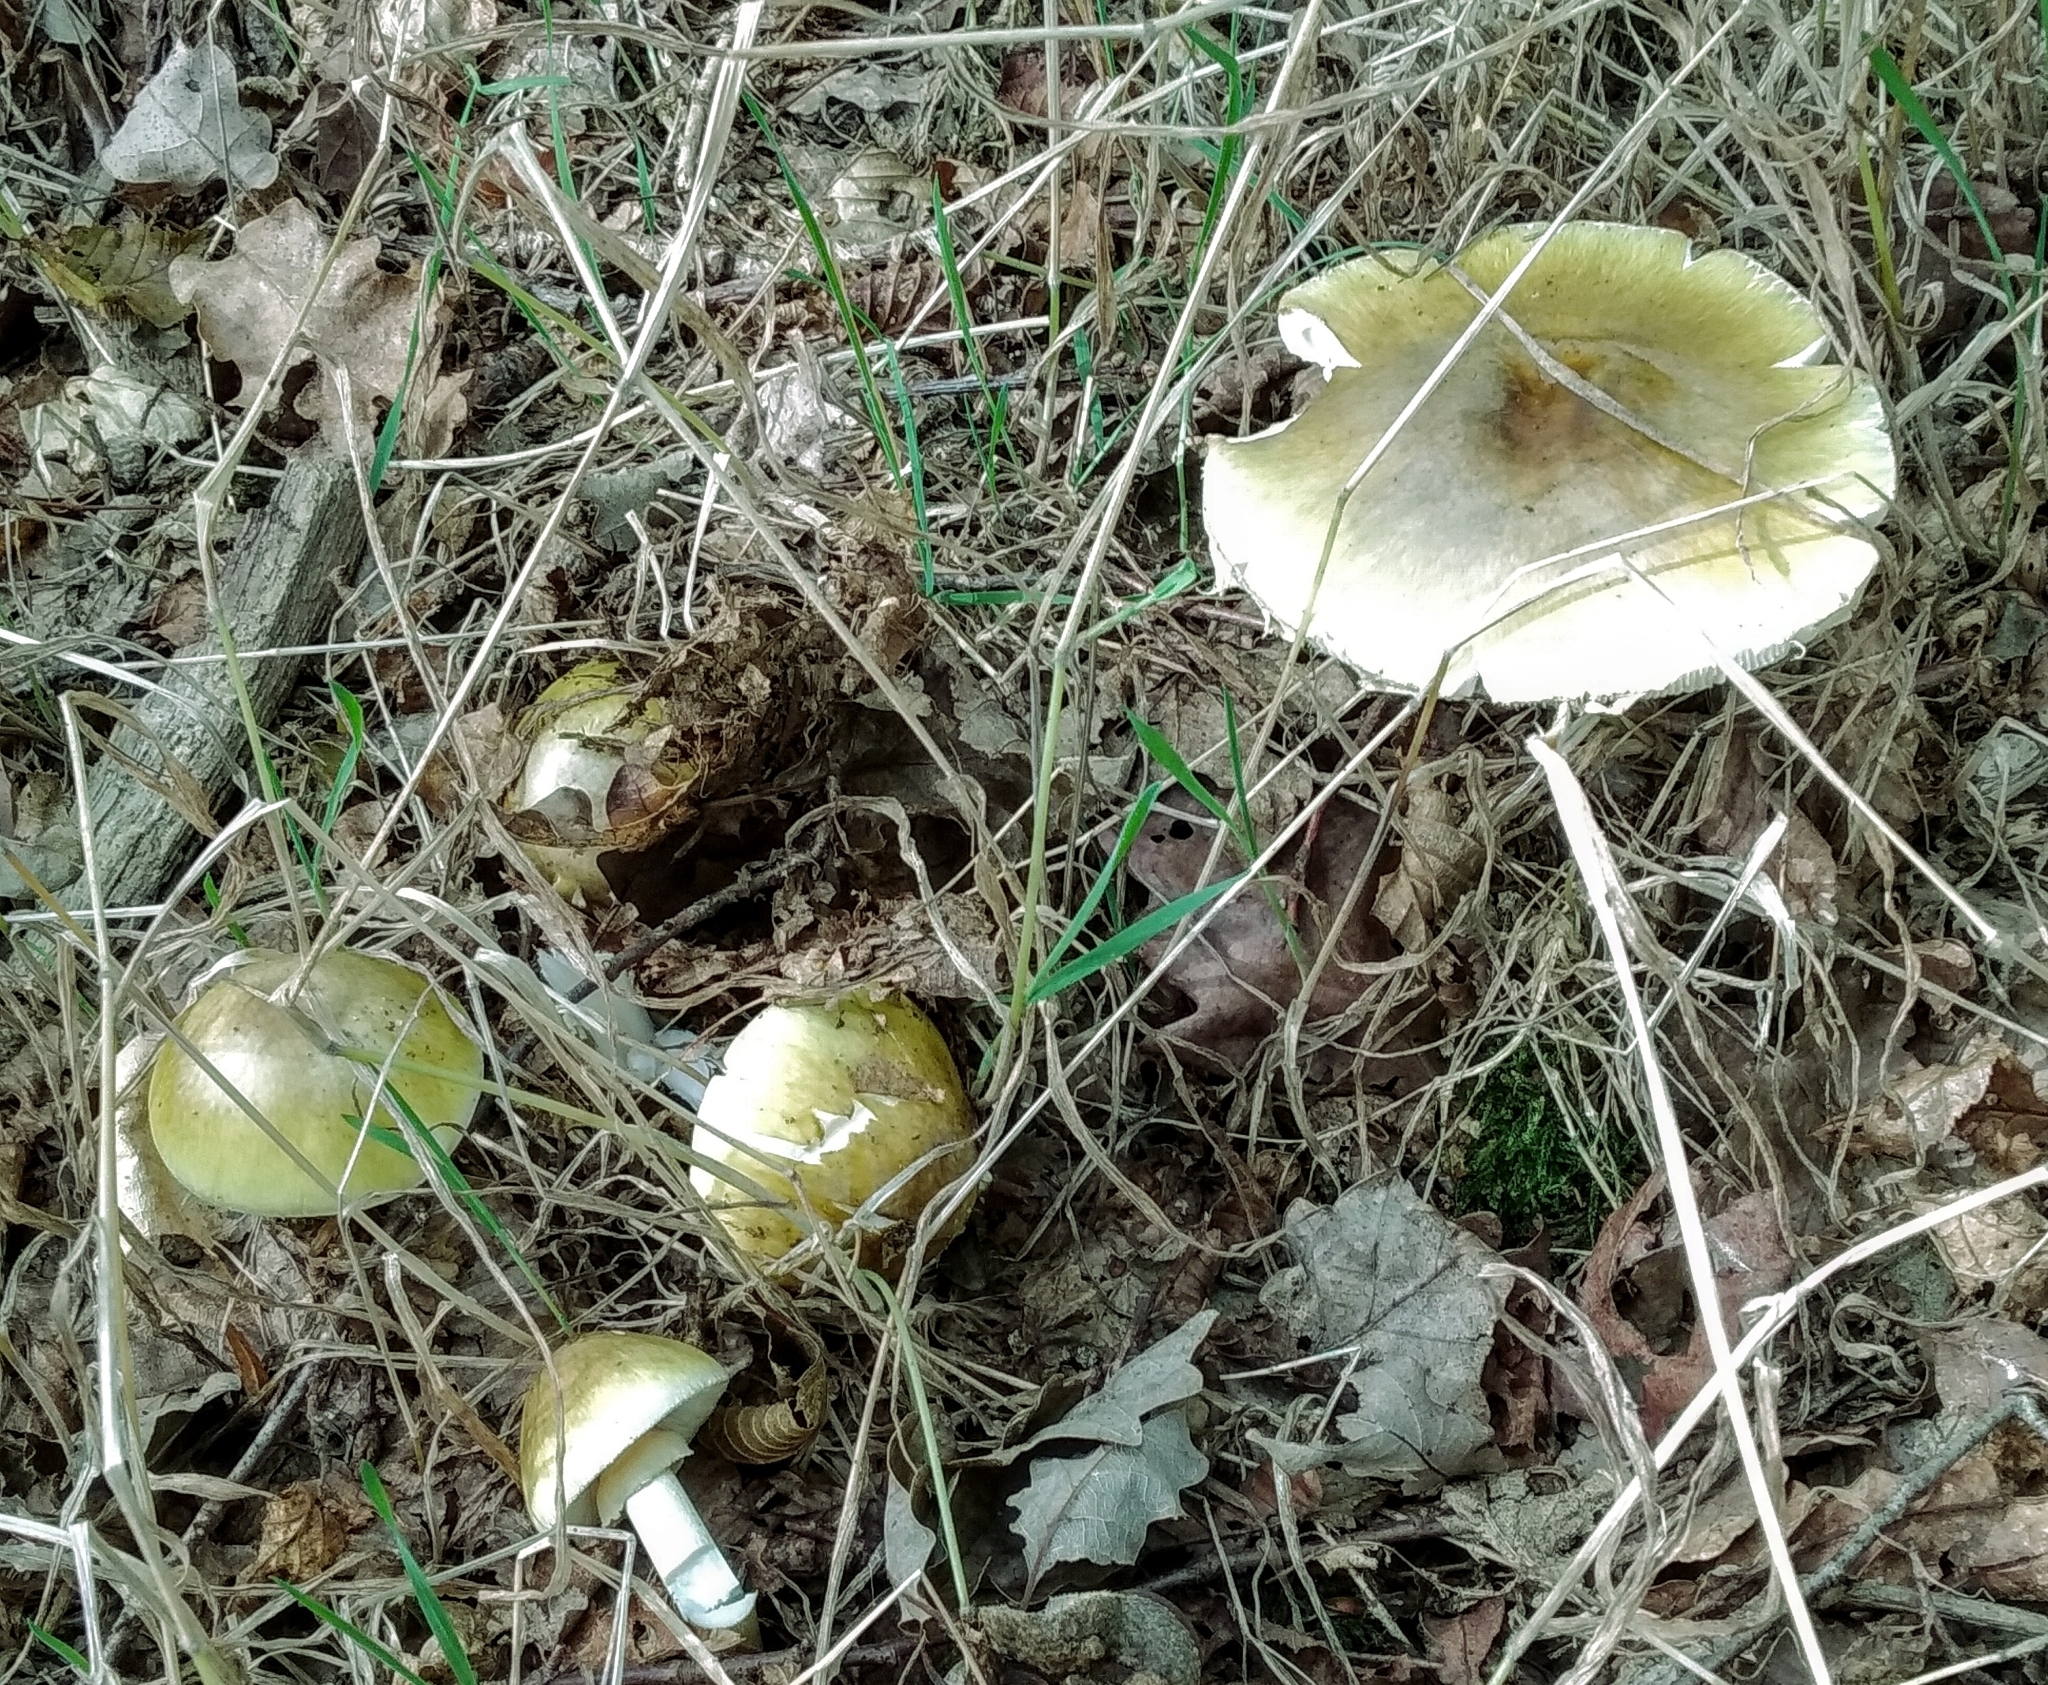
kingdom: Fungi
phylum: Basidiomycota
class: Agaricomycetes
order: Agaricales
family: Amanitaceae
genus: Amanita
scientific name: Amanita phalloides
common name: Death cap
